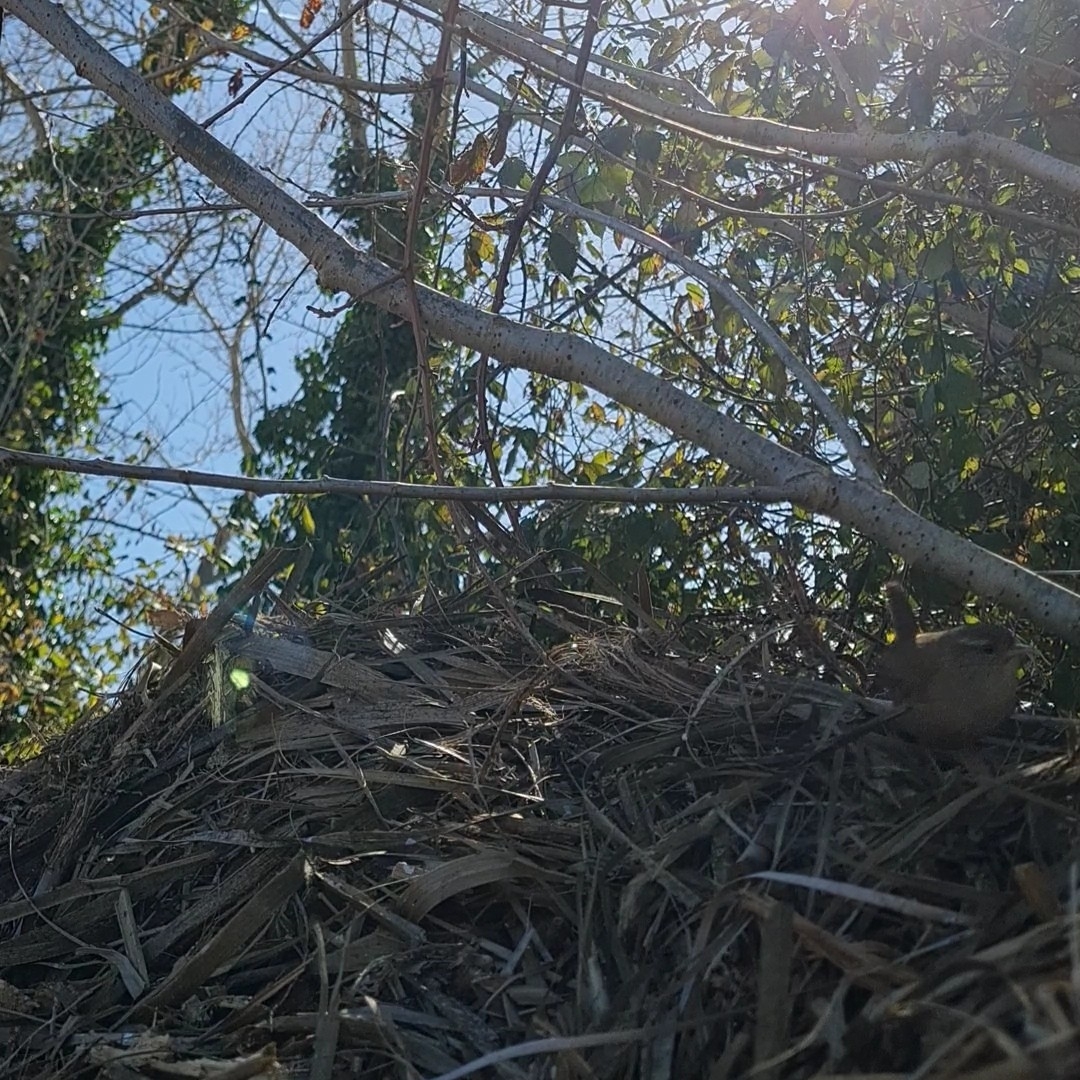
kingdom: Animalia
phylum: Chordata
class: Aves
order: Passeriformes
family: Troglodytidae
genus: Troglodytes
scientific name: Troglodytes troglodytes
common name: Eurasian wren
